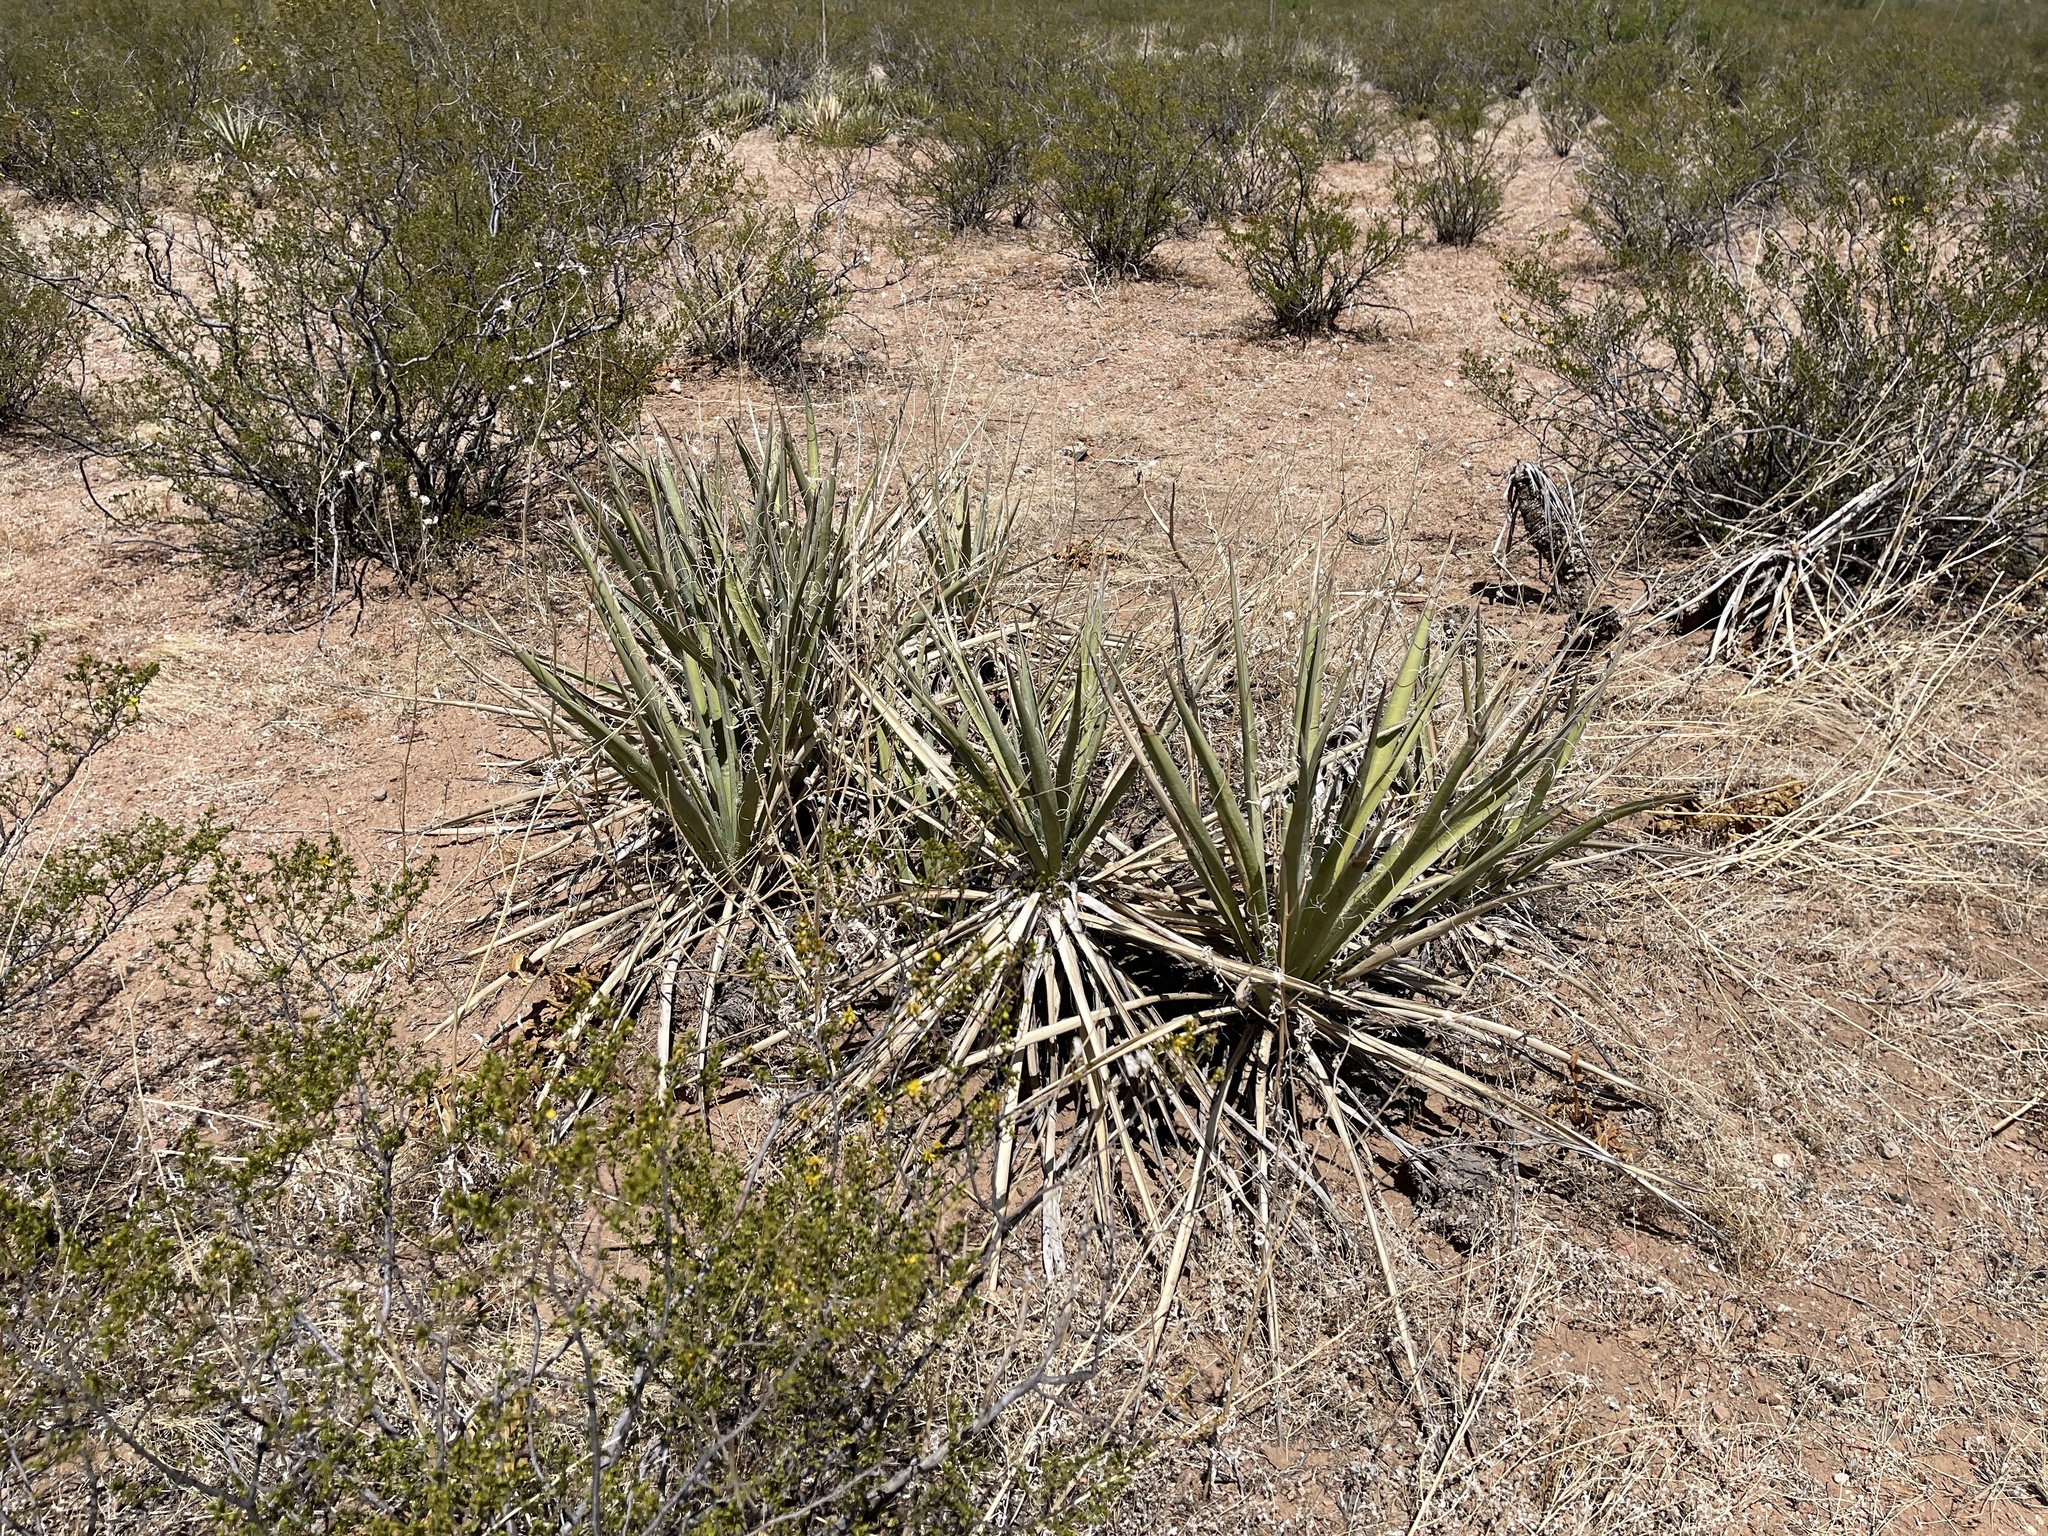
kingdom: Plantae
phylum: Tracheophyta
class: Liliopsida
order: Asparagales
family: Asparagaceae
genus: Yucca
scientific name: Yucca baccata
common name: Banana yucca
